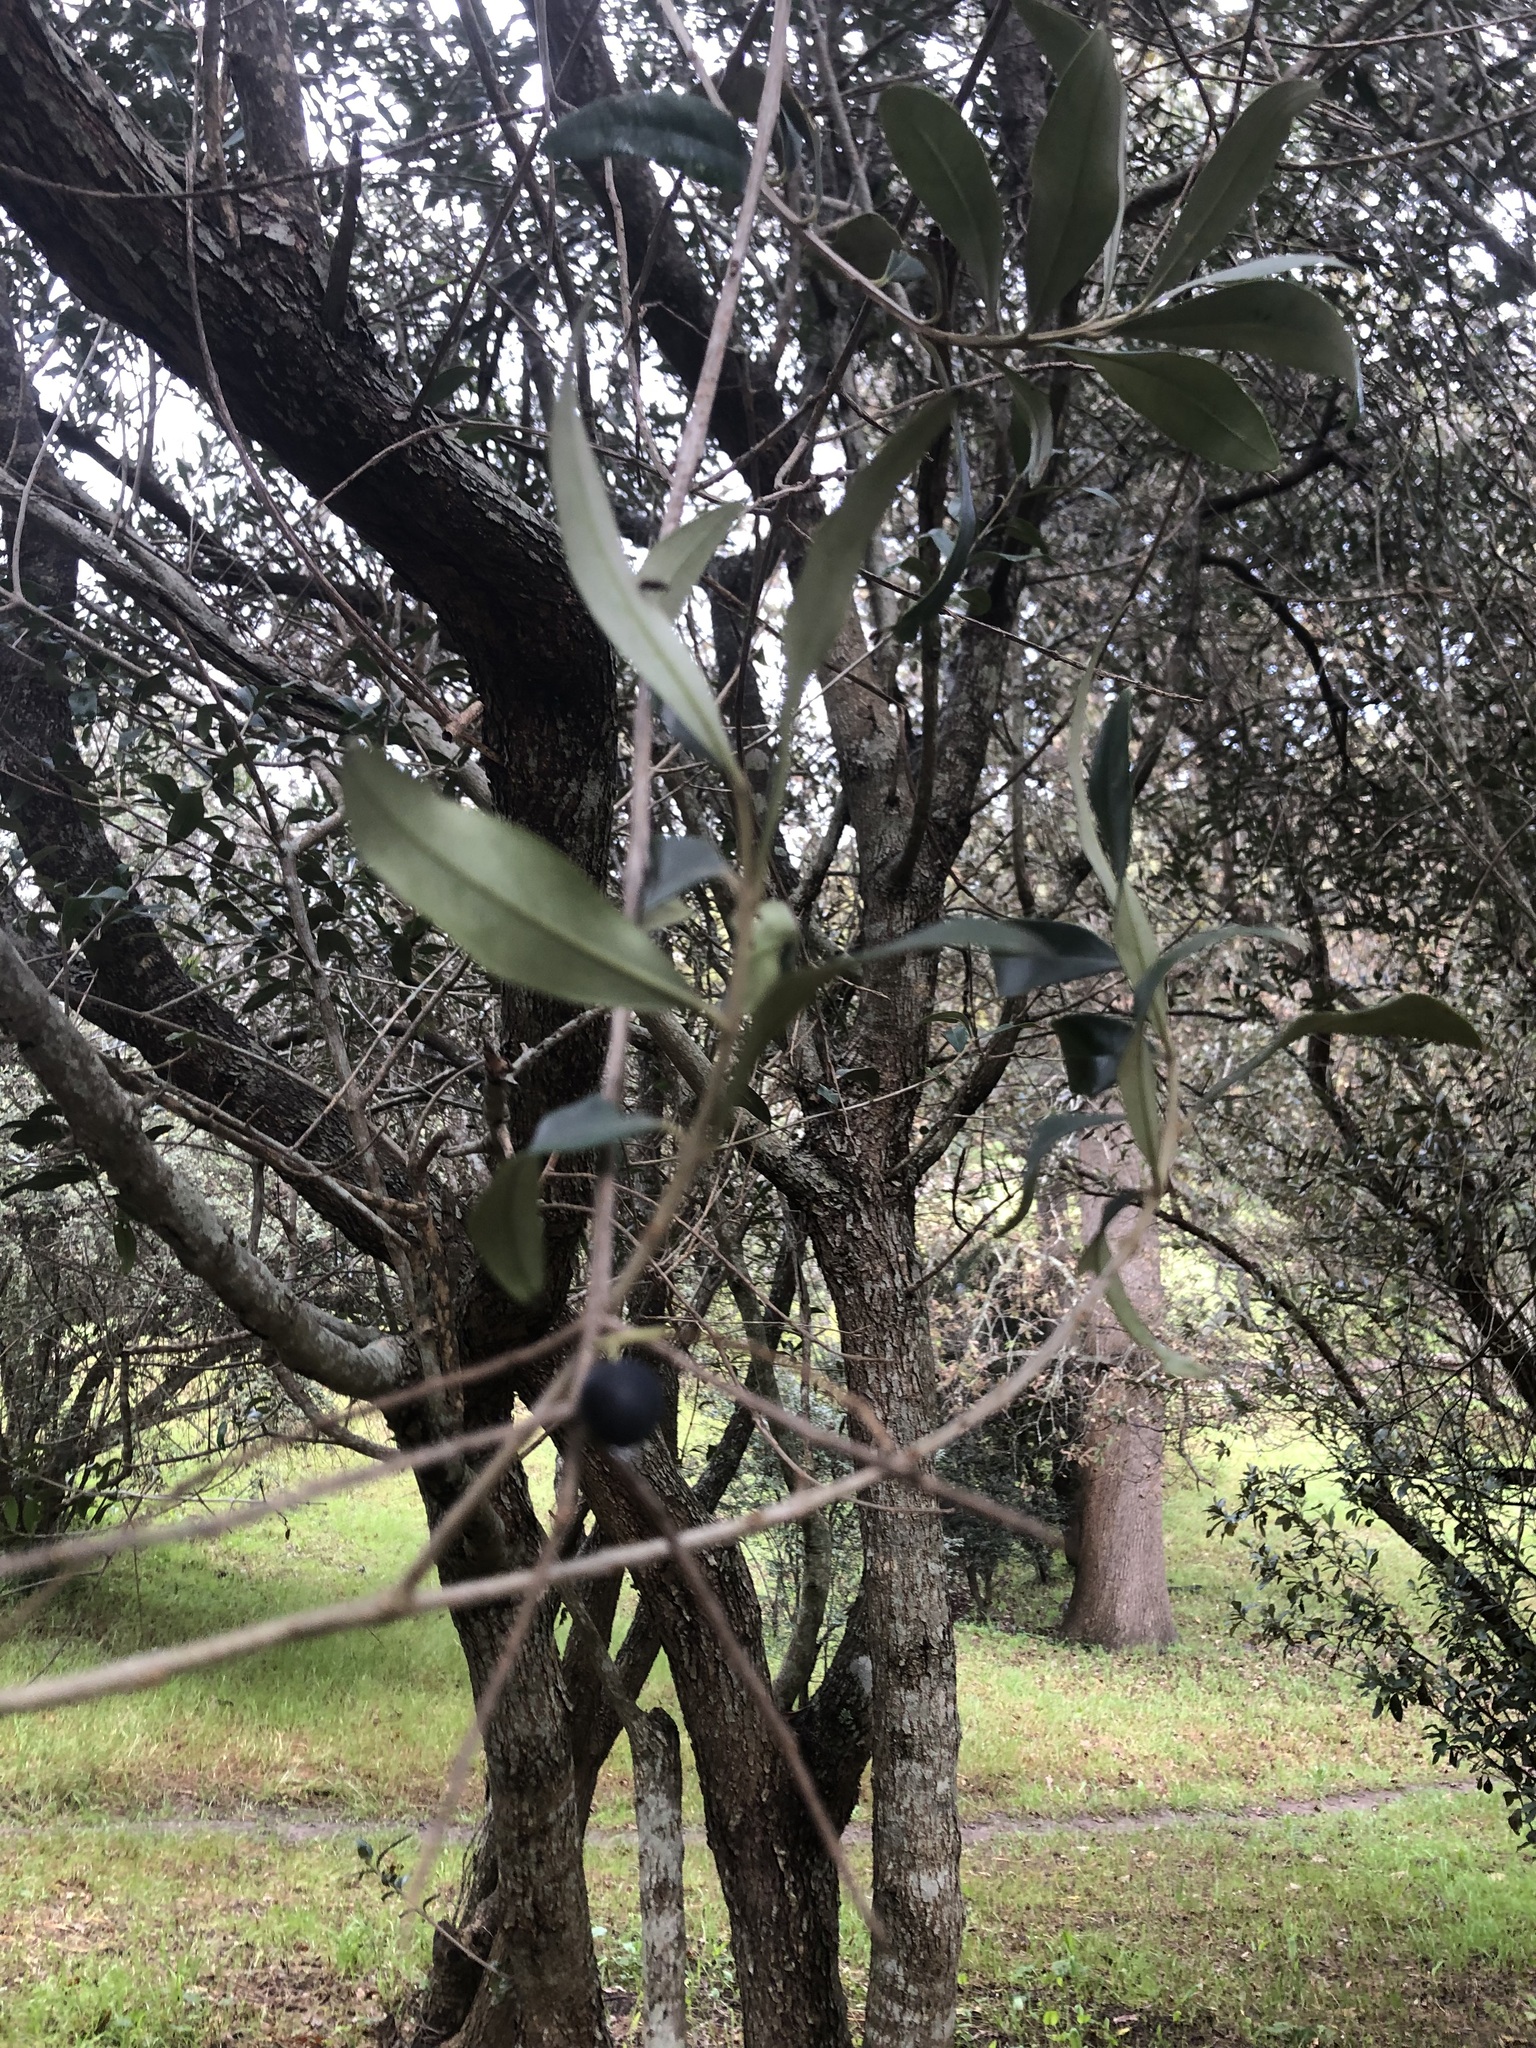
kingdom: Plantae
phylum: Tracheophyta
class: Magnoliopsida
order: Lamiales
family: Oleaceae
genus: Olea
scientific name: Olea europaea
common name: Olive
